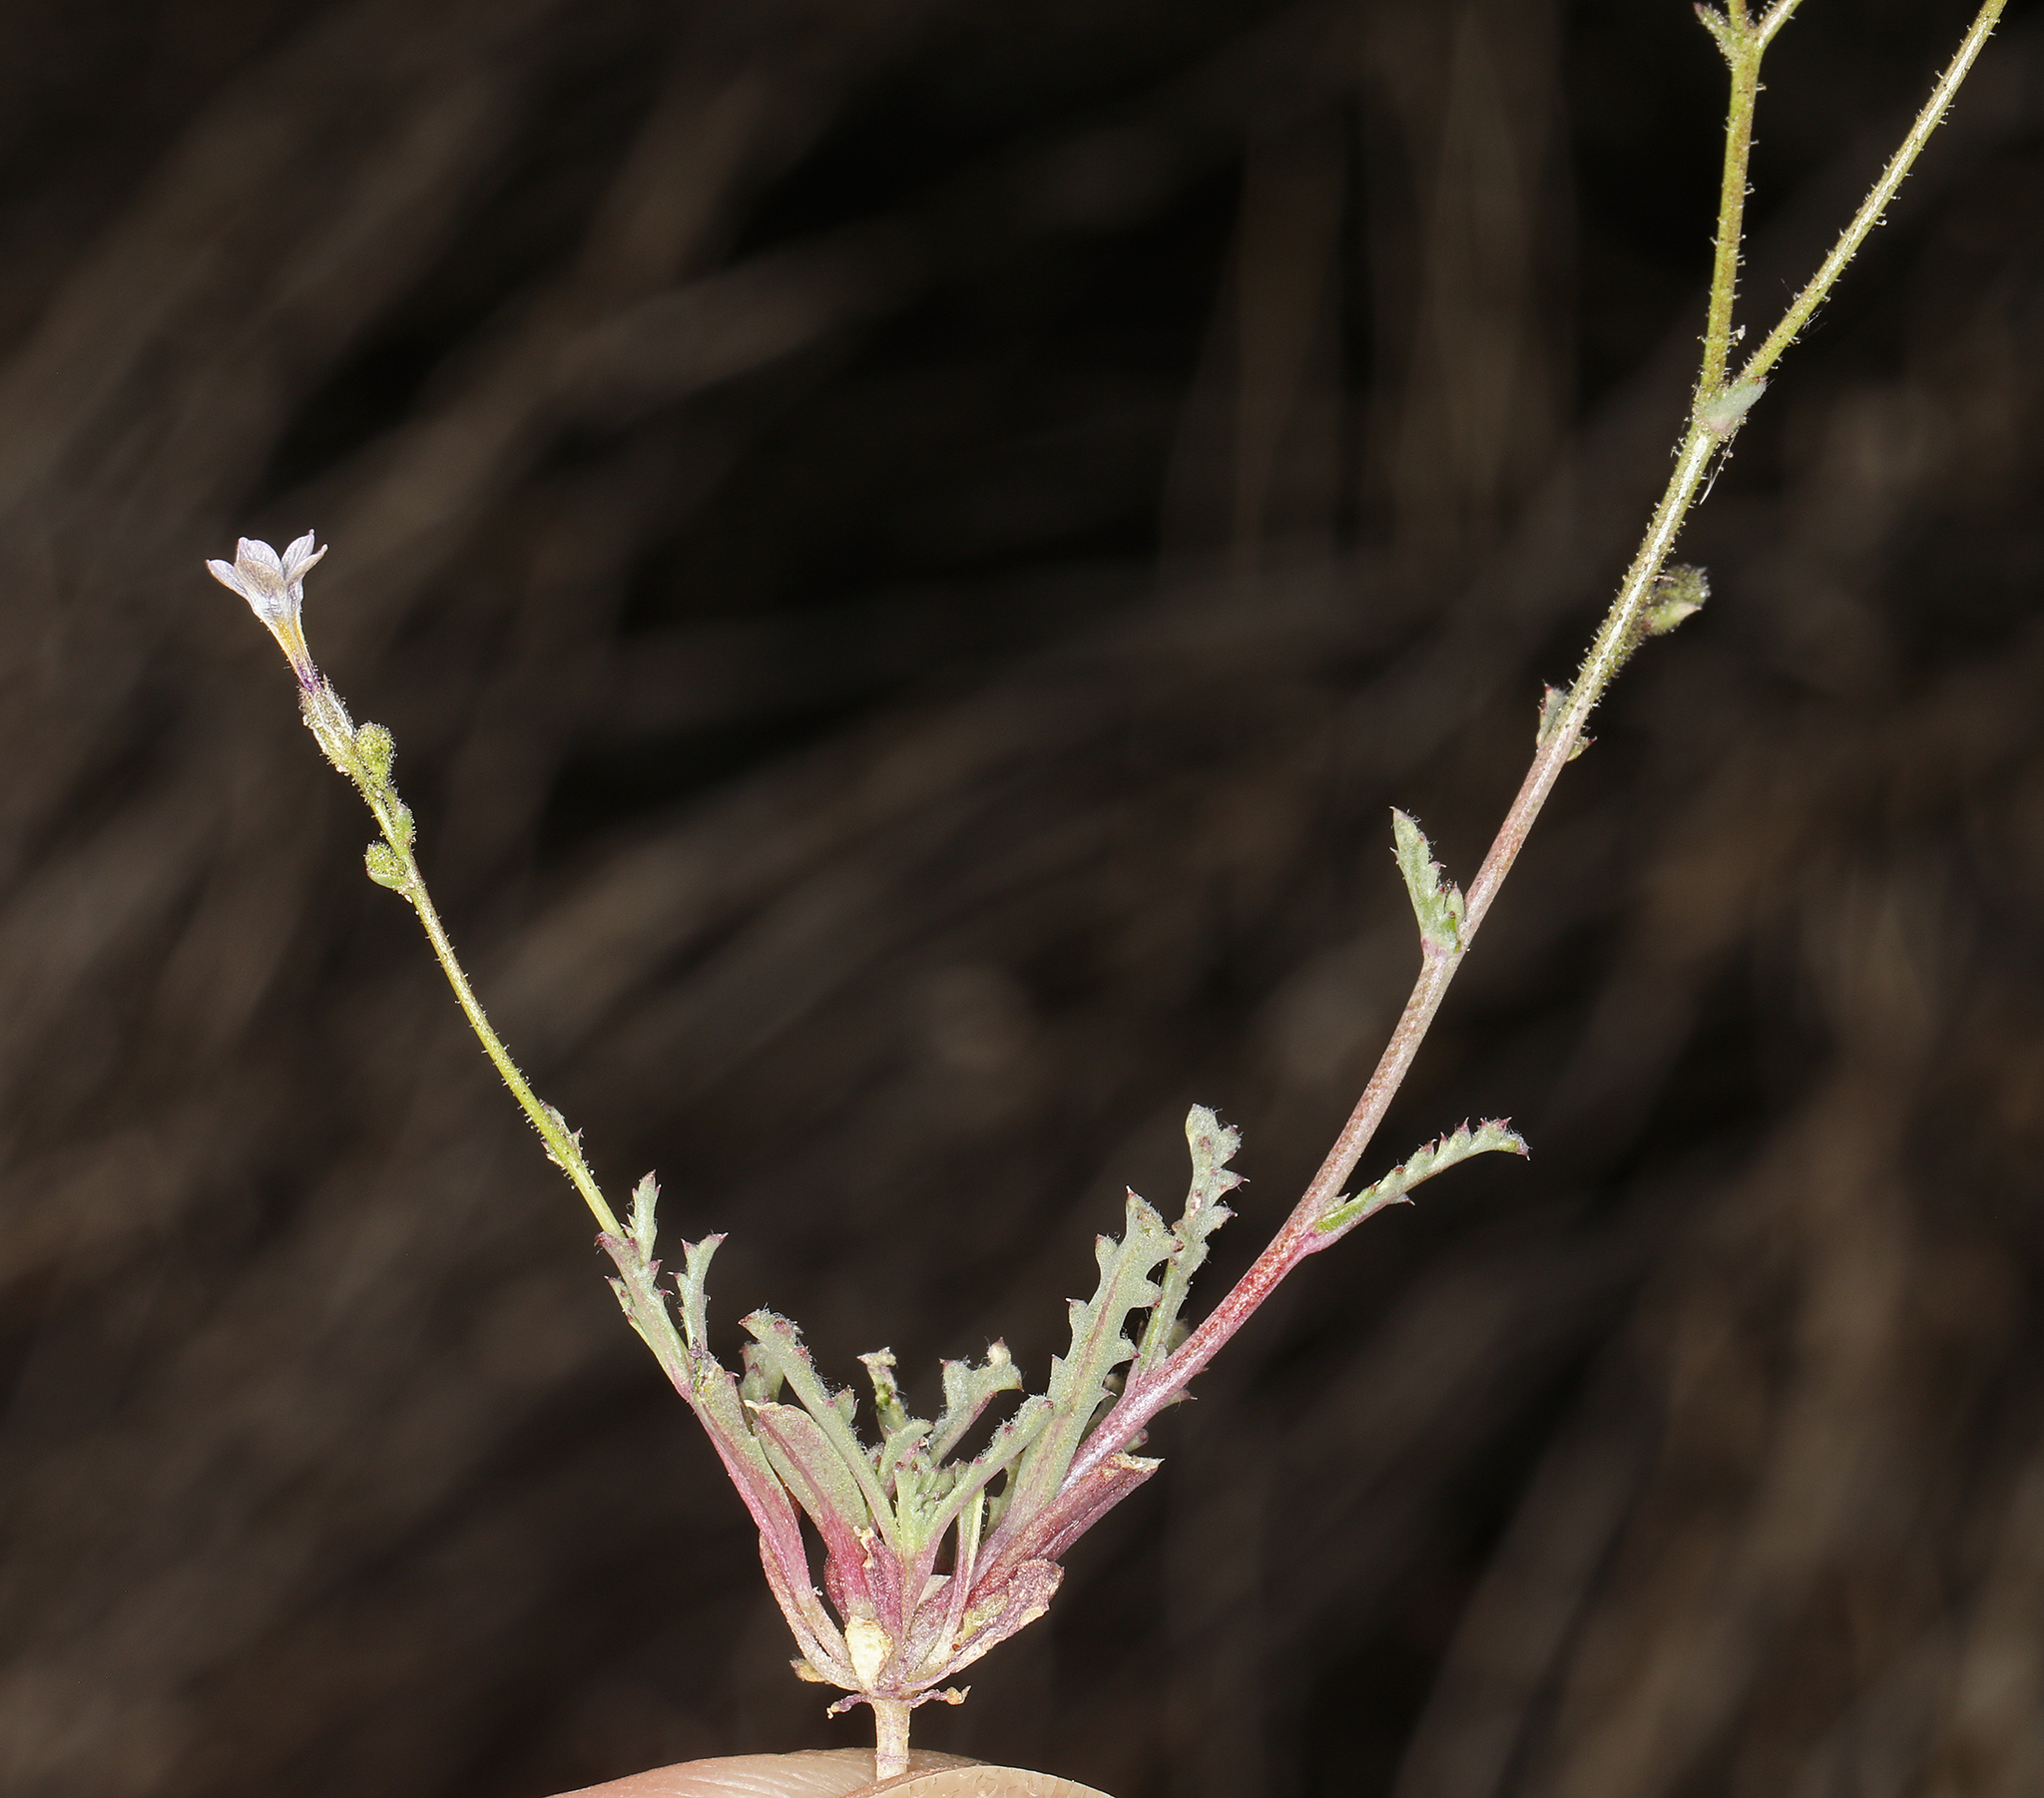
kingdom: Plantae
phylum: Tracheophyta
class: Magnoliopsida
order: Ericales
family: Polemoniaceae
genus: Gilia
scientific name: Gilia sinuata
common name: Rosy gilia
